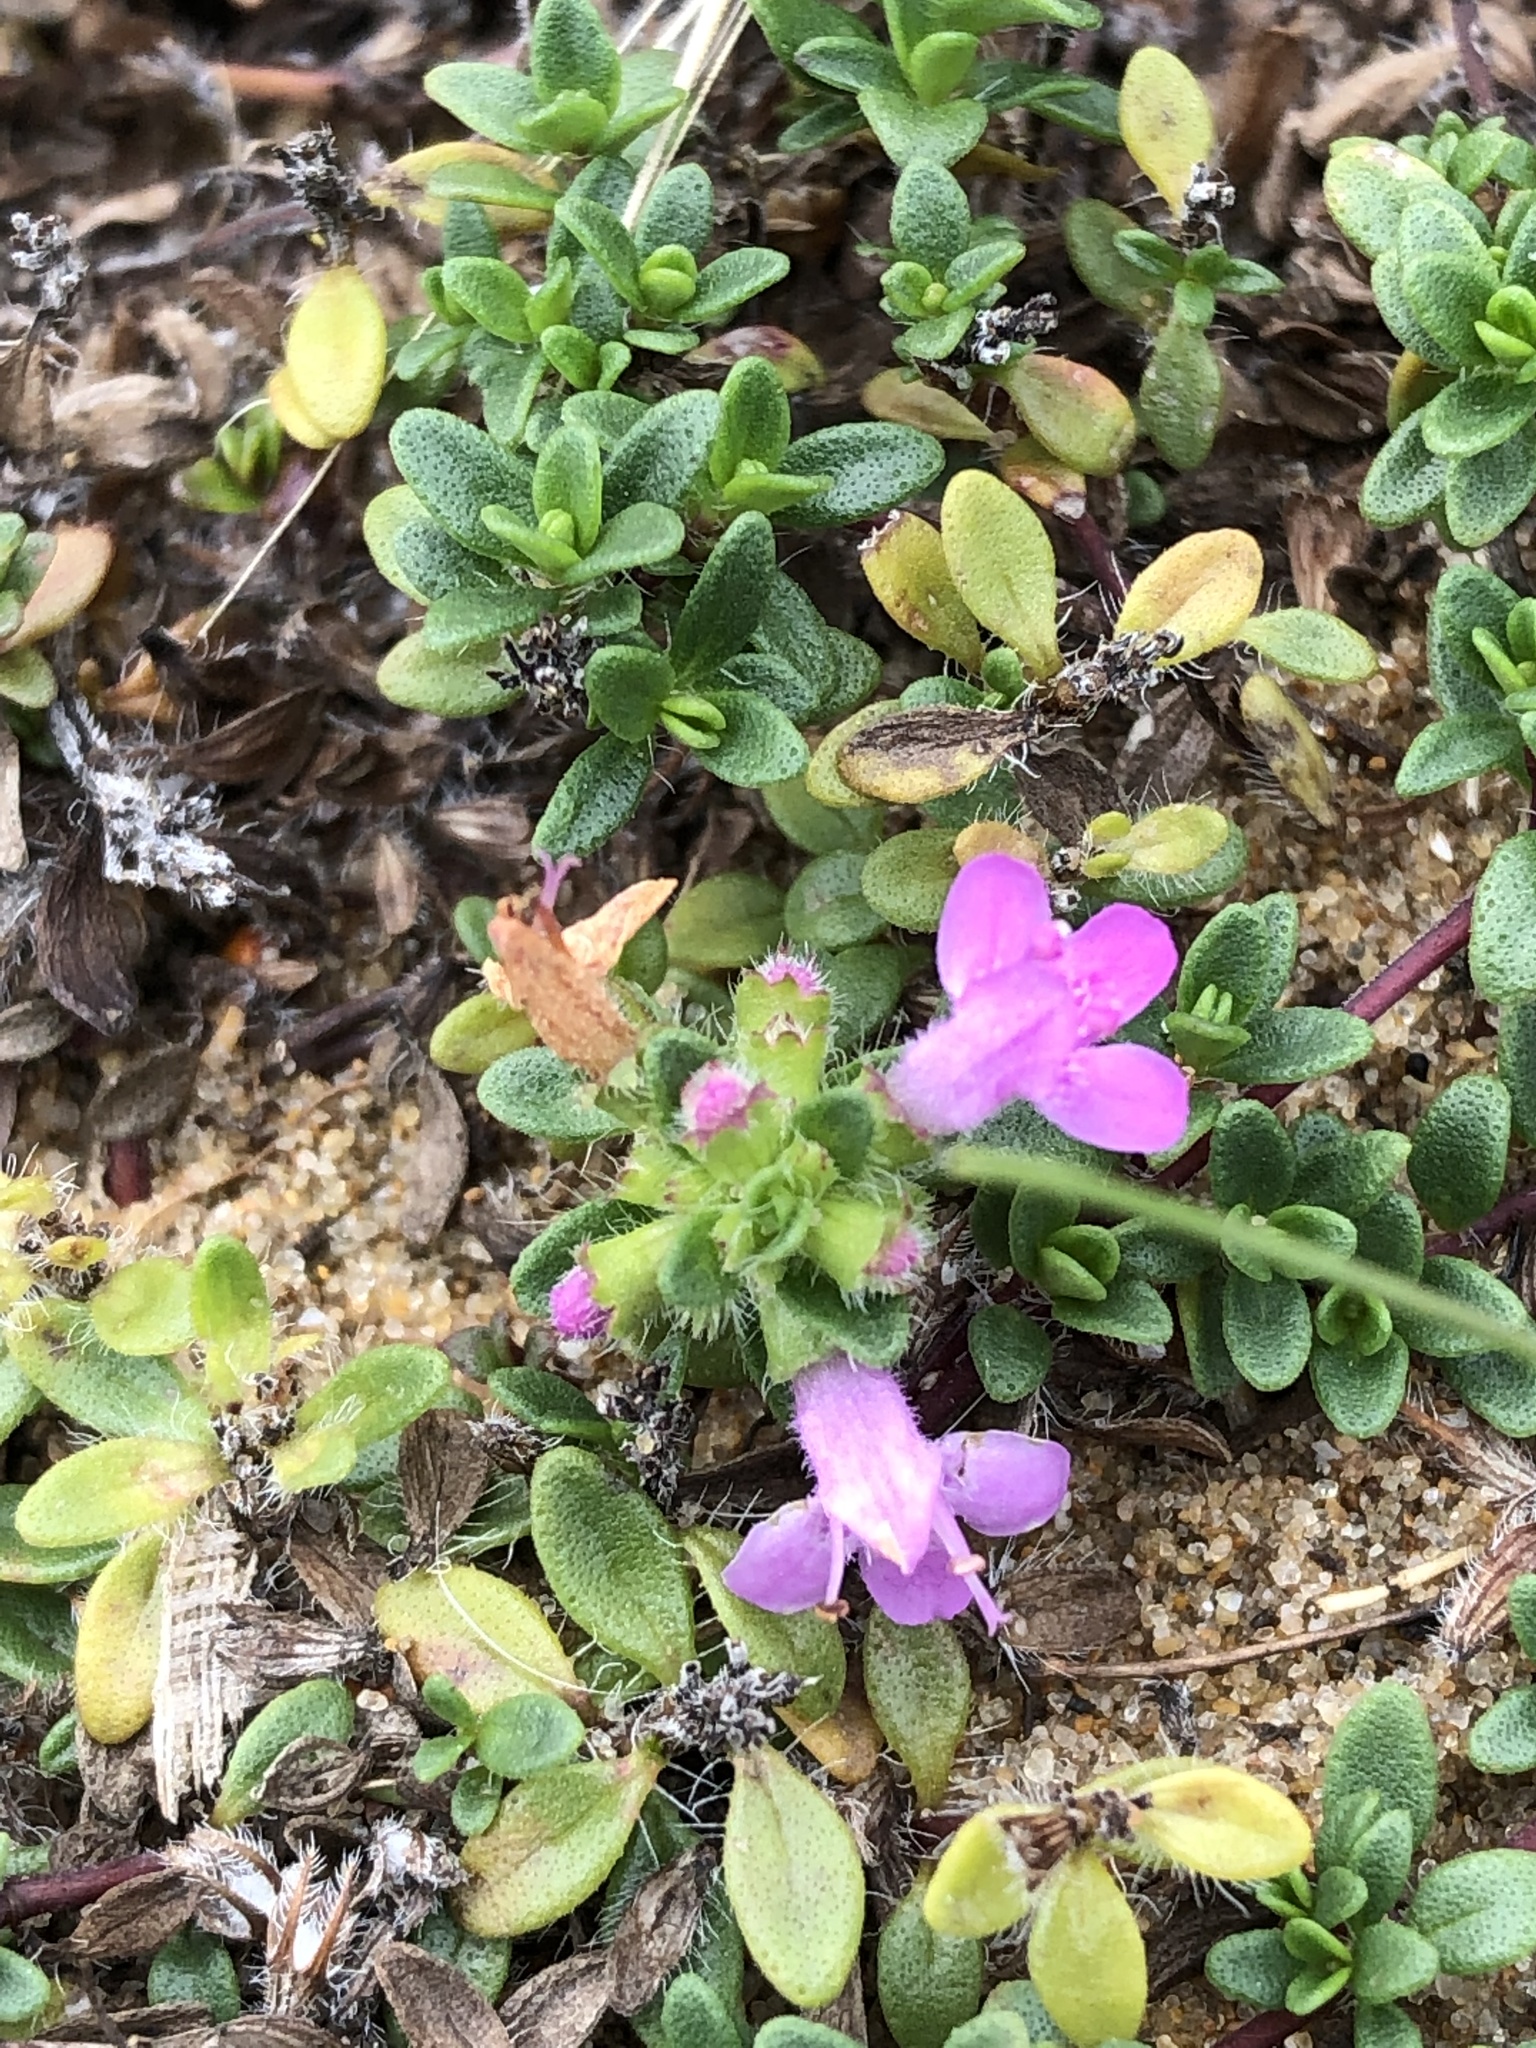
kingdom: Plantae
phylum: Tracheophyta
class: Magnoliopsida
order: Lamiales
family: Lamiaceae
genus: Thymus
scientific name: Thymus praecox
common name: Wild thyme
